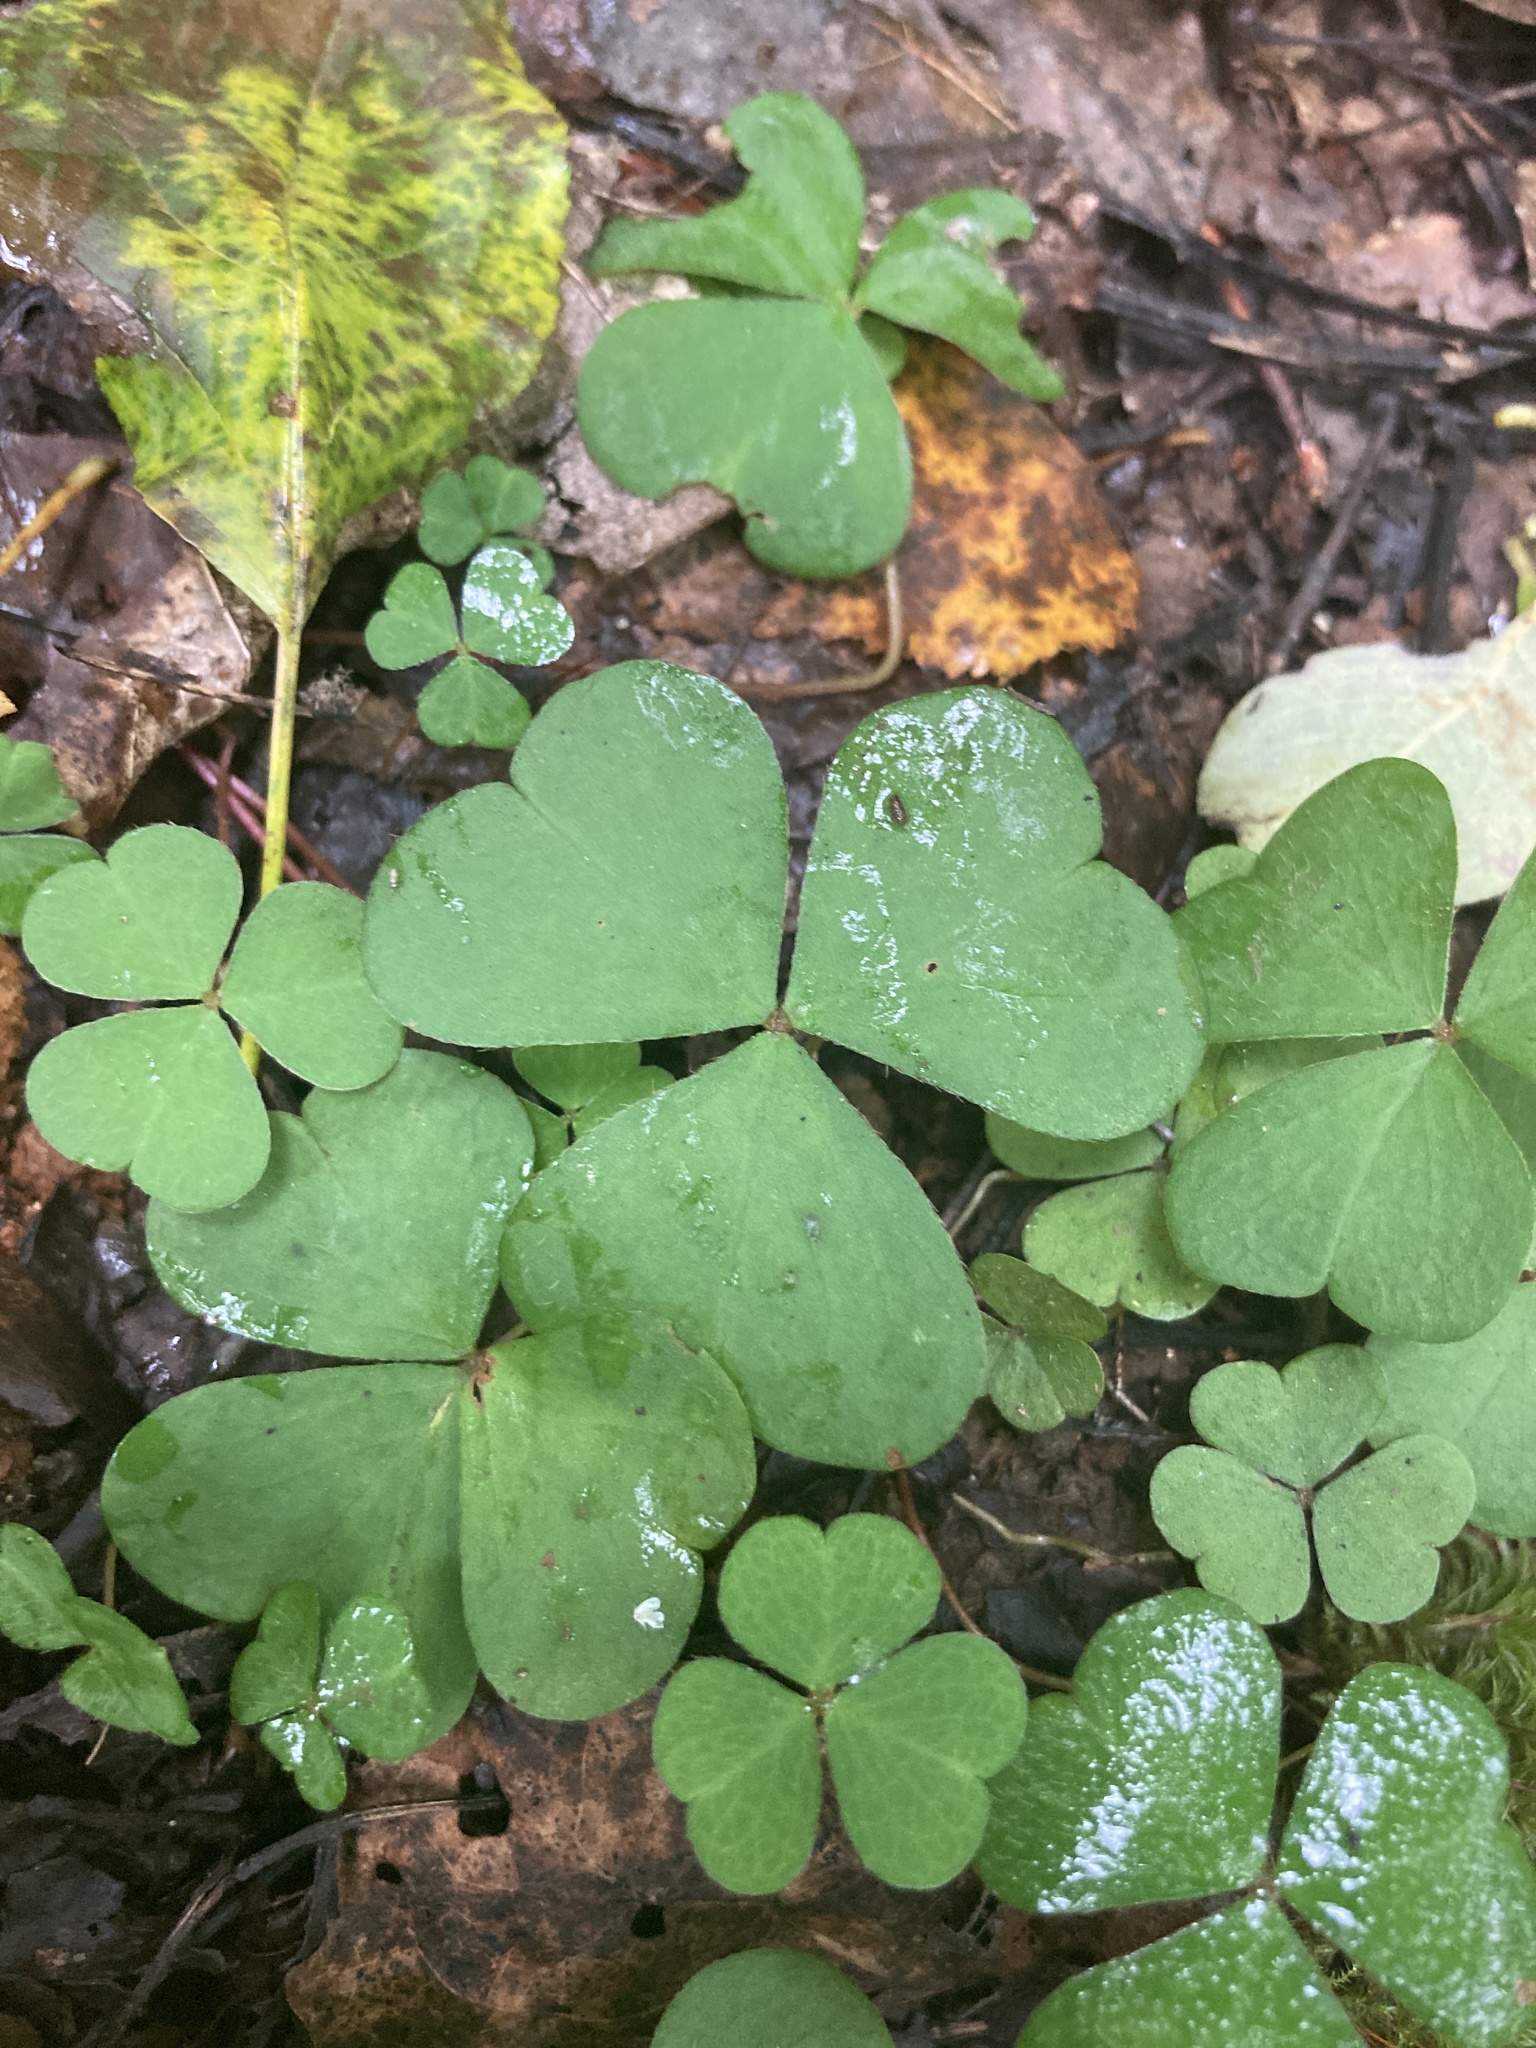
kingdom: Plantae
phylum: Tracheophyta
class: Magnoliopsida
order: Oxalidales
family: Oxalidaceae
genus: Oxalis
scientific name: Oxalis acetosella
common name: Wood-sorrel
